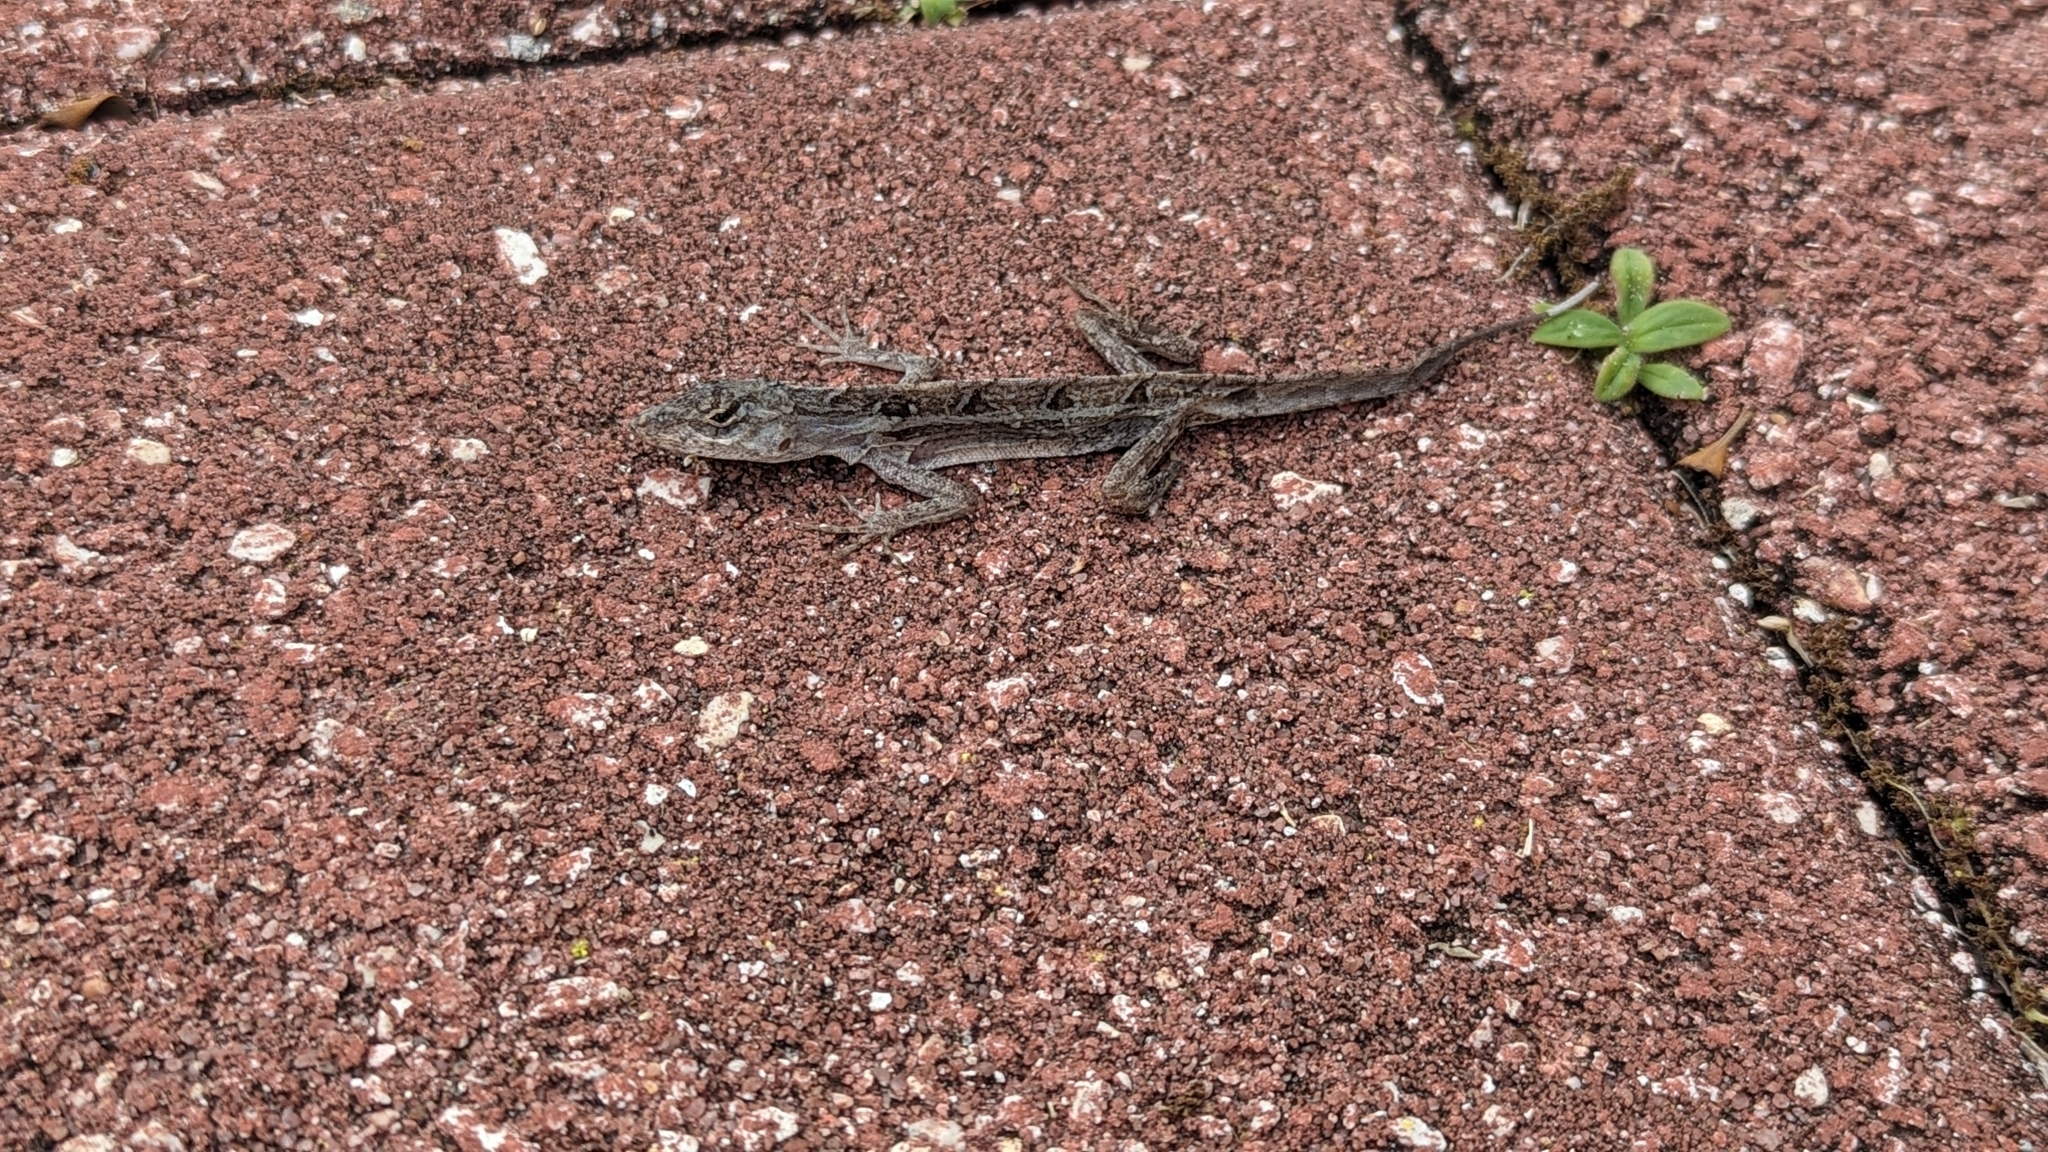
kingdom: Animalia
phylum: Chordata
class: Squamata
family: Dactyloidae
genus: Anolis
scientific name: Anolis sagrei
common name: Brown anole
